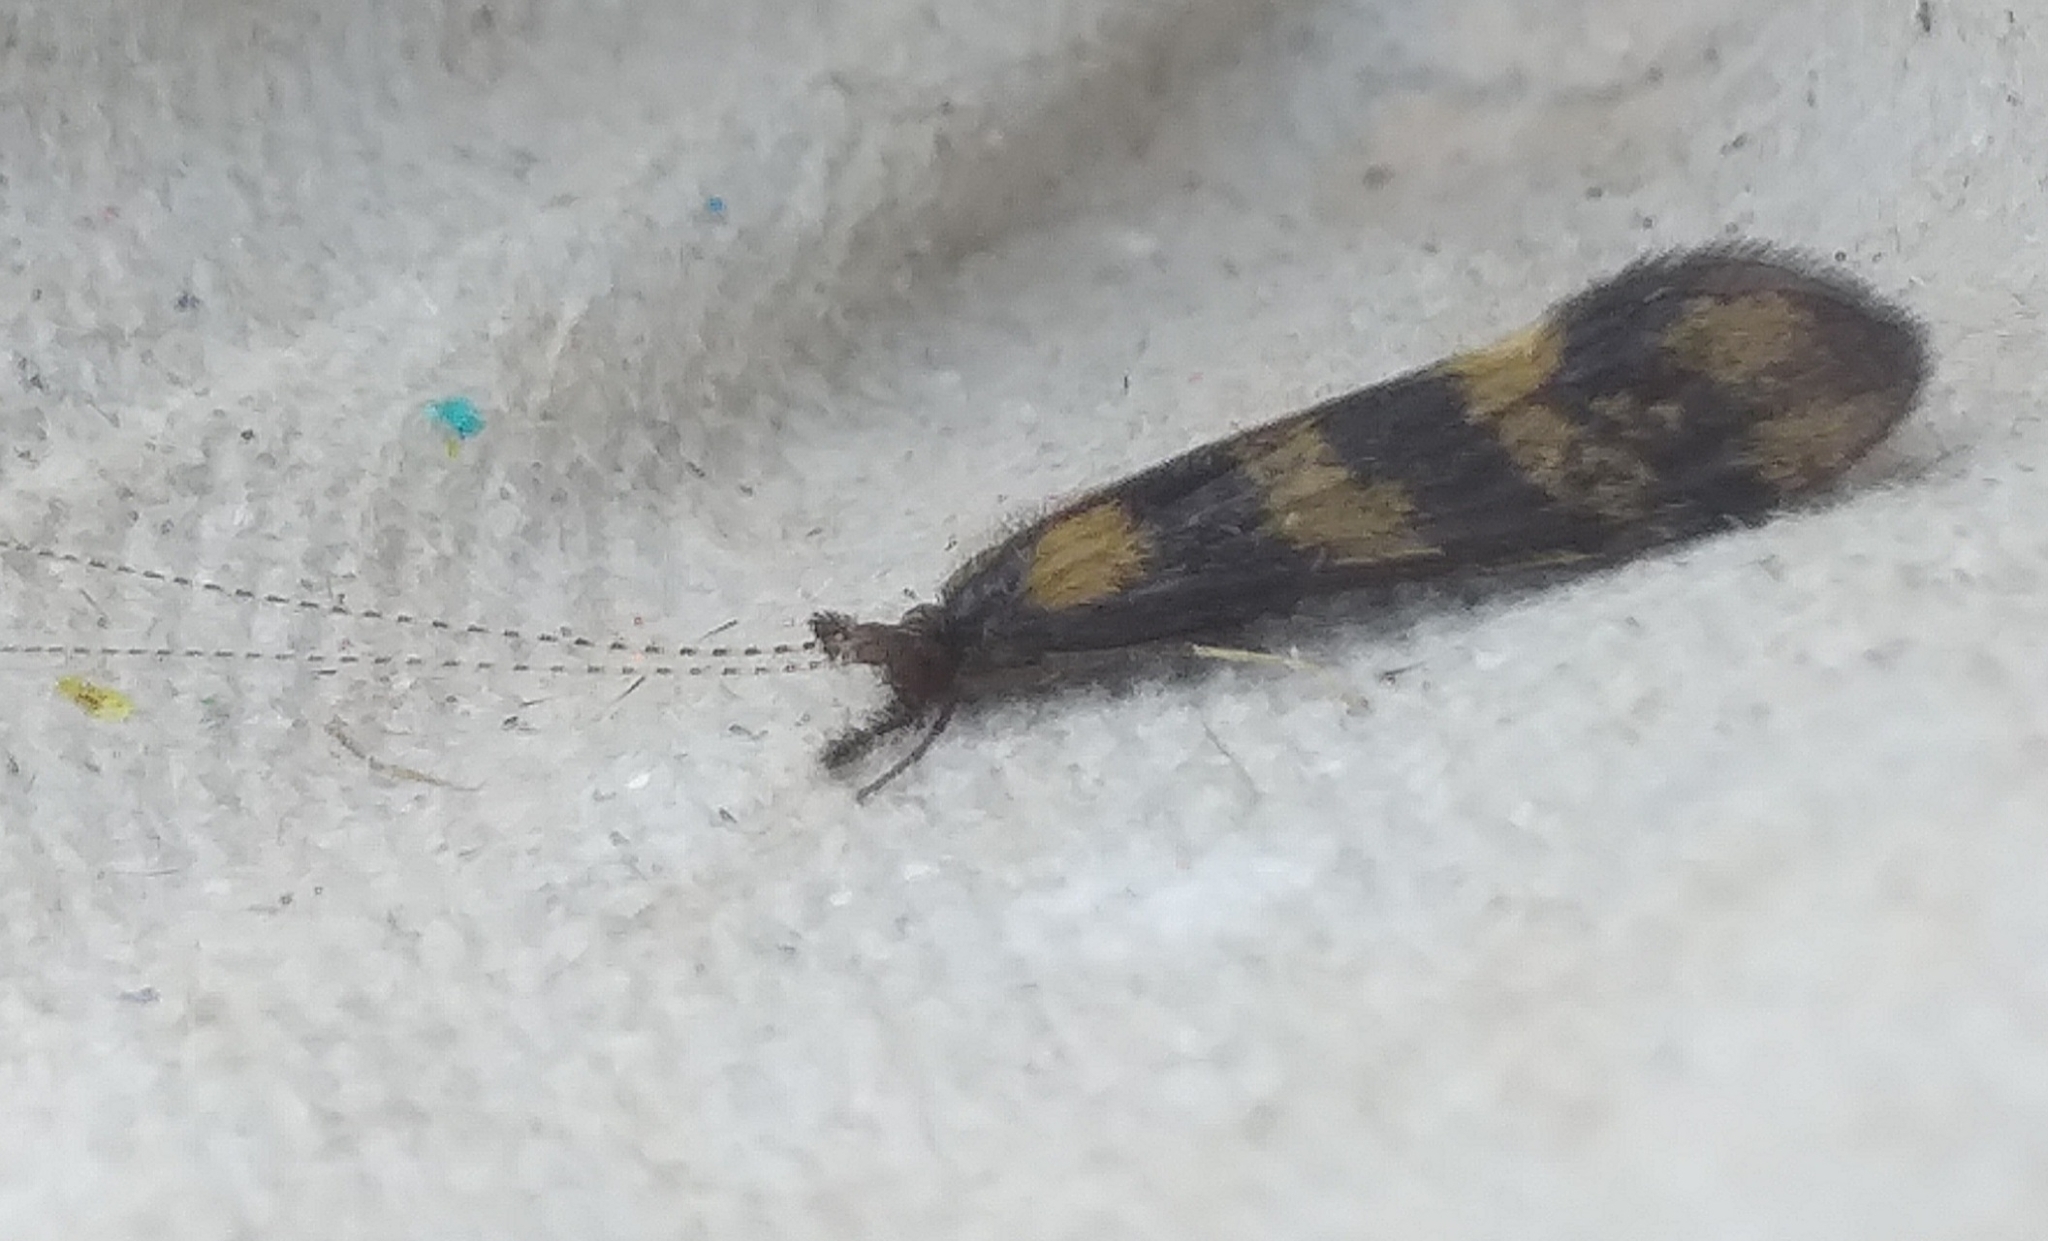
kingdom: Animalia
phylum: Arthropoda
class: Insecta
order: Trichoptera
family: Leptoceridae
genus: Mystacides
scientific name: Mystacides longicornis
